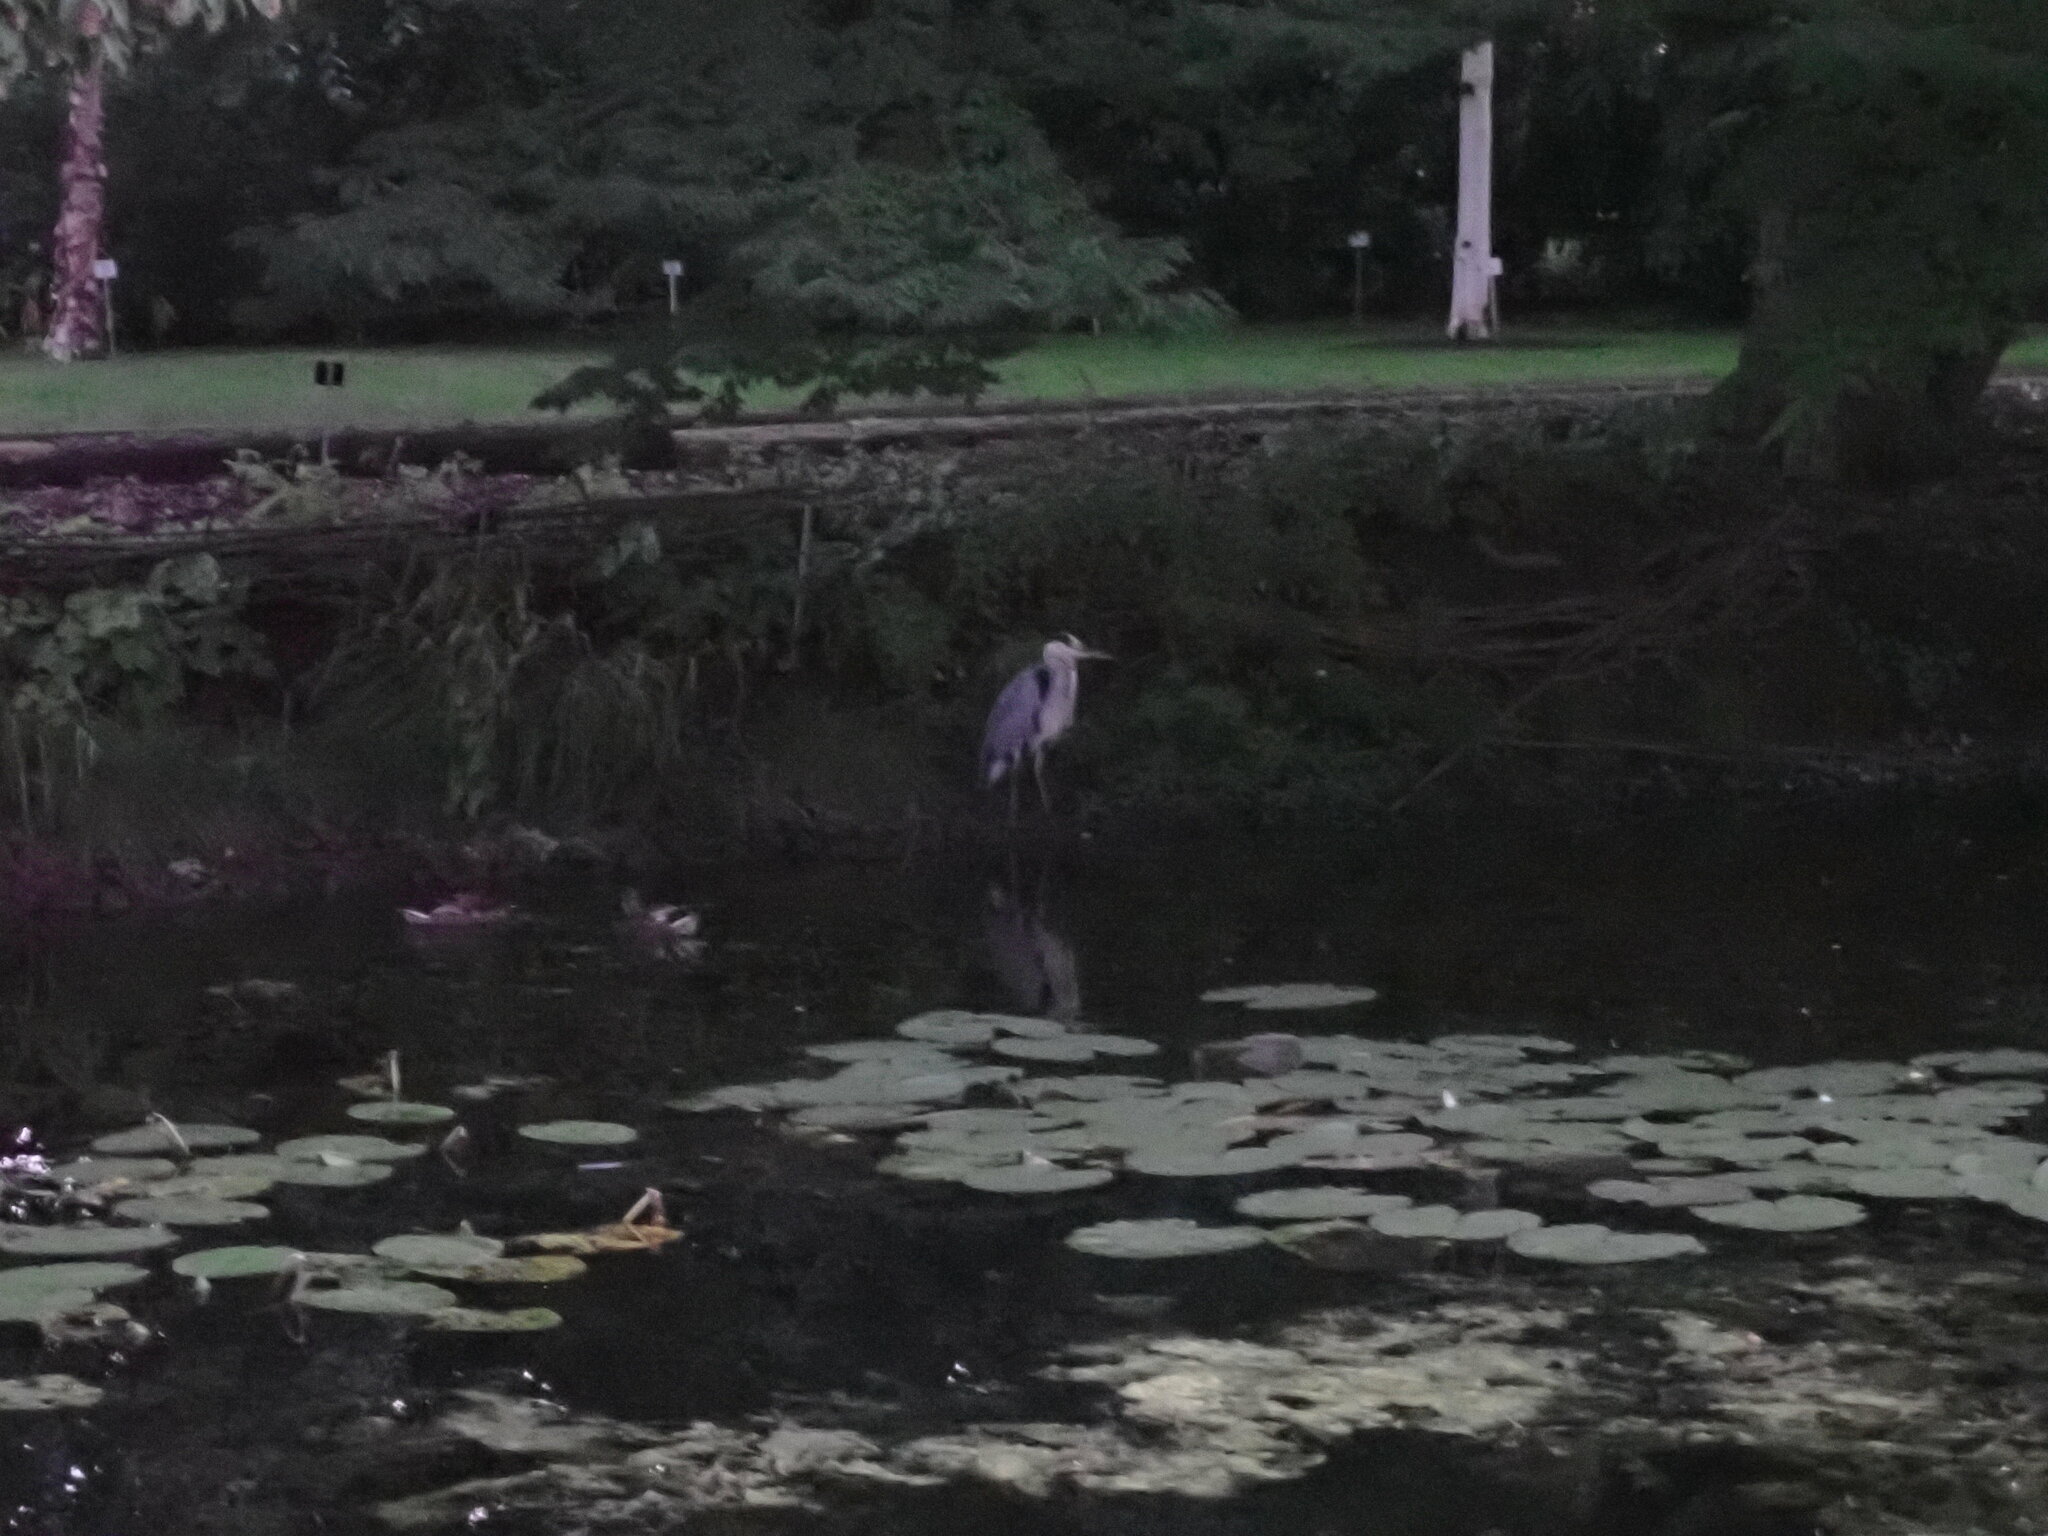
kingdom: Animalia
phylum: Chordata
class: Aves
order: Pelecaniformes
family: Ardeidae
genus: Ardea
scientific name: Ardea cinerea
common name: Grey heron
